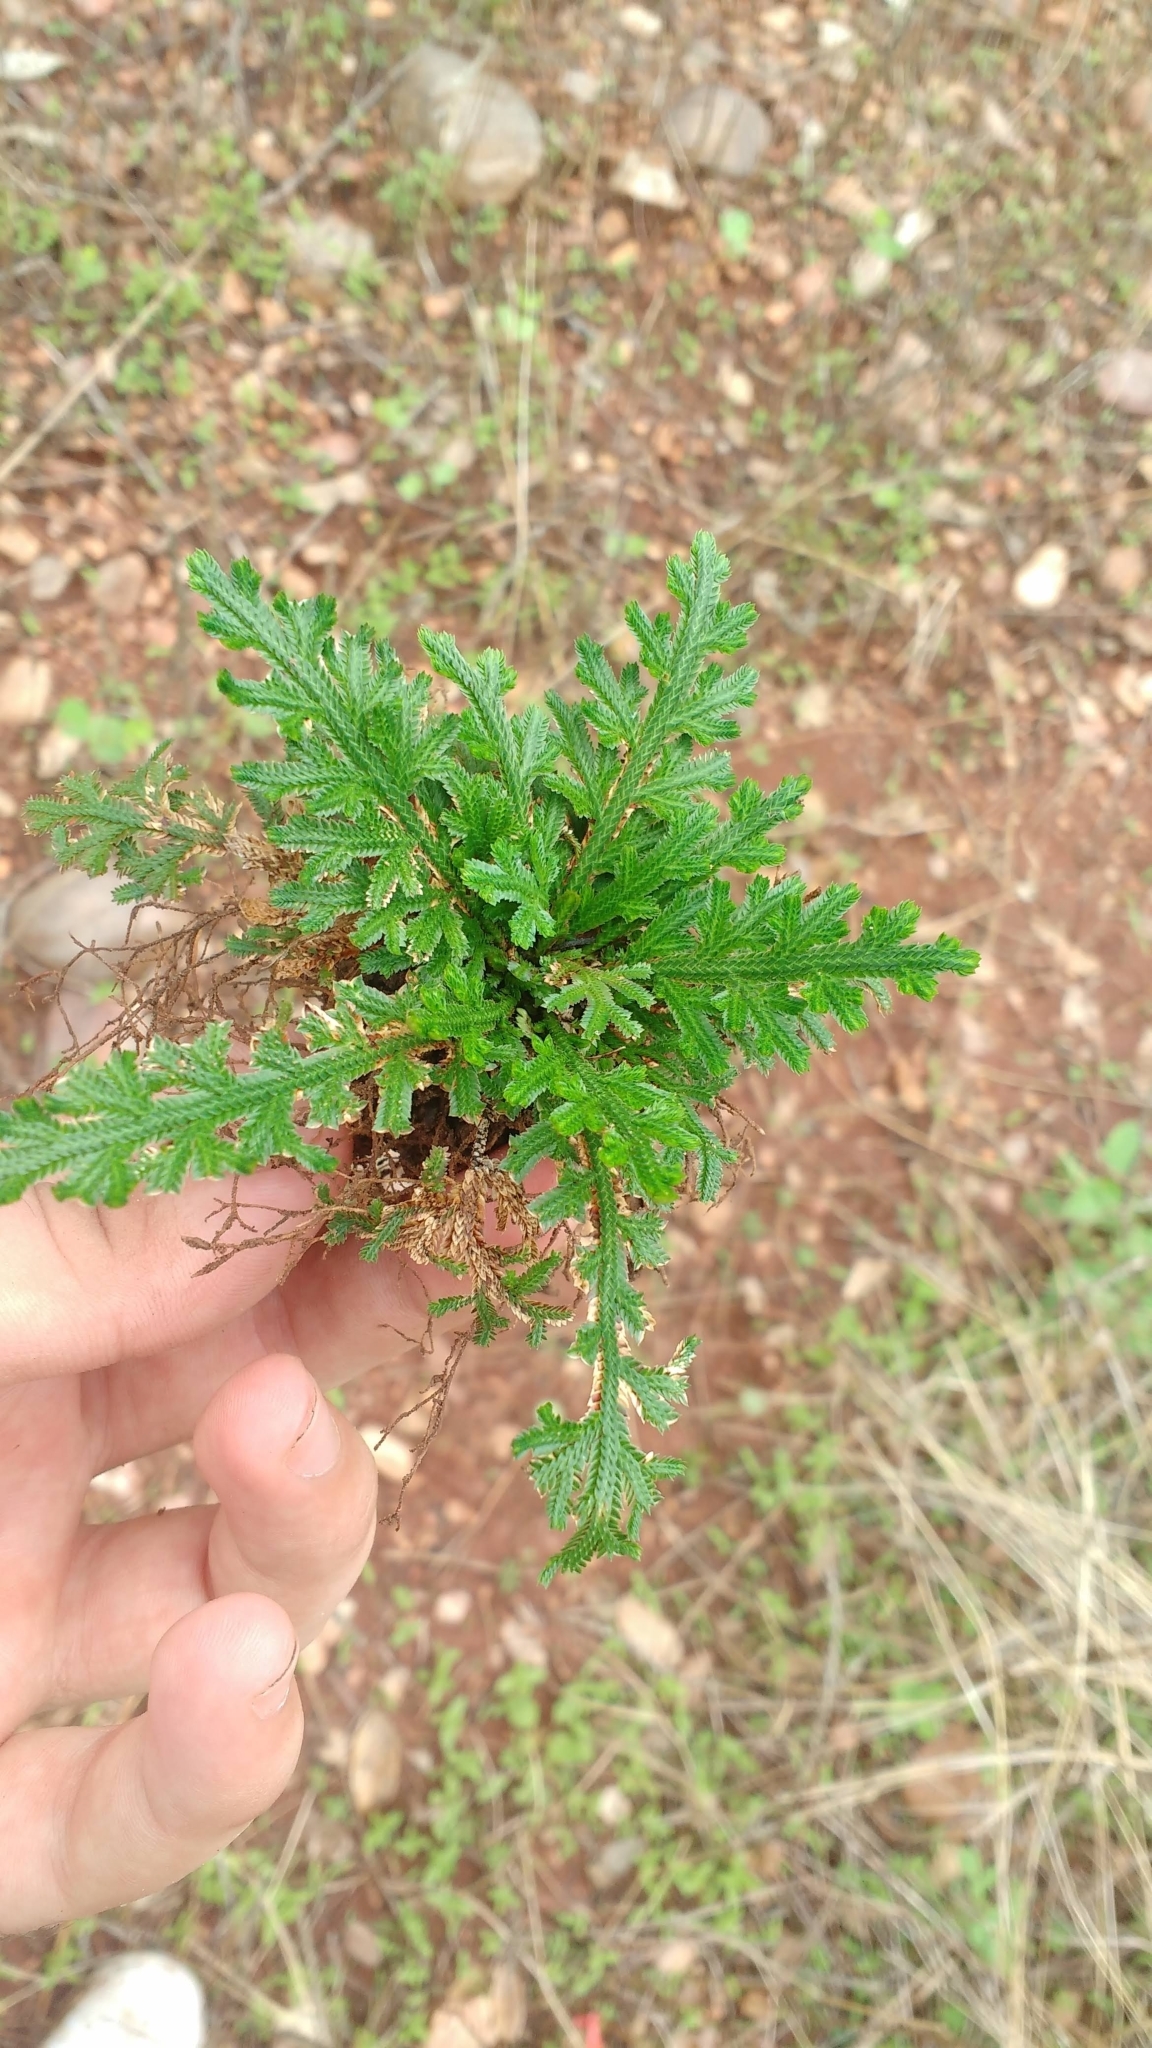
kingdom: Plantae
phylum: Tracheophyta
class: Lycopodiopsida
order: Selaginellales
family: Selaginellaceae
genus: Selaginella
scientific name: Selaginella convoluta
